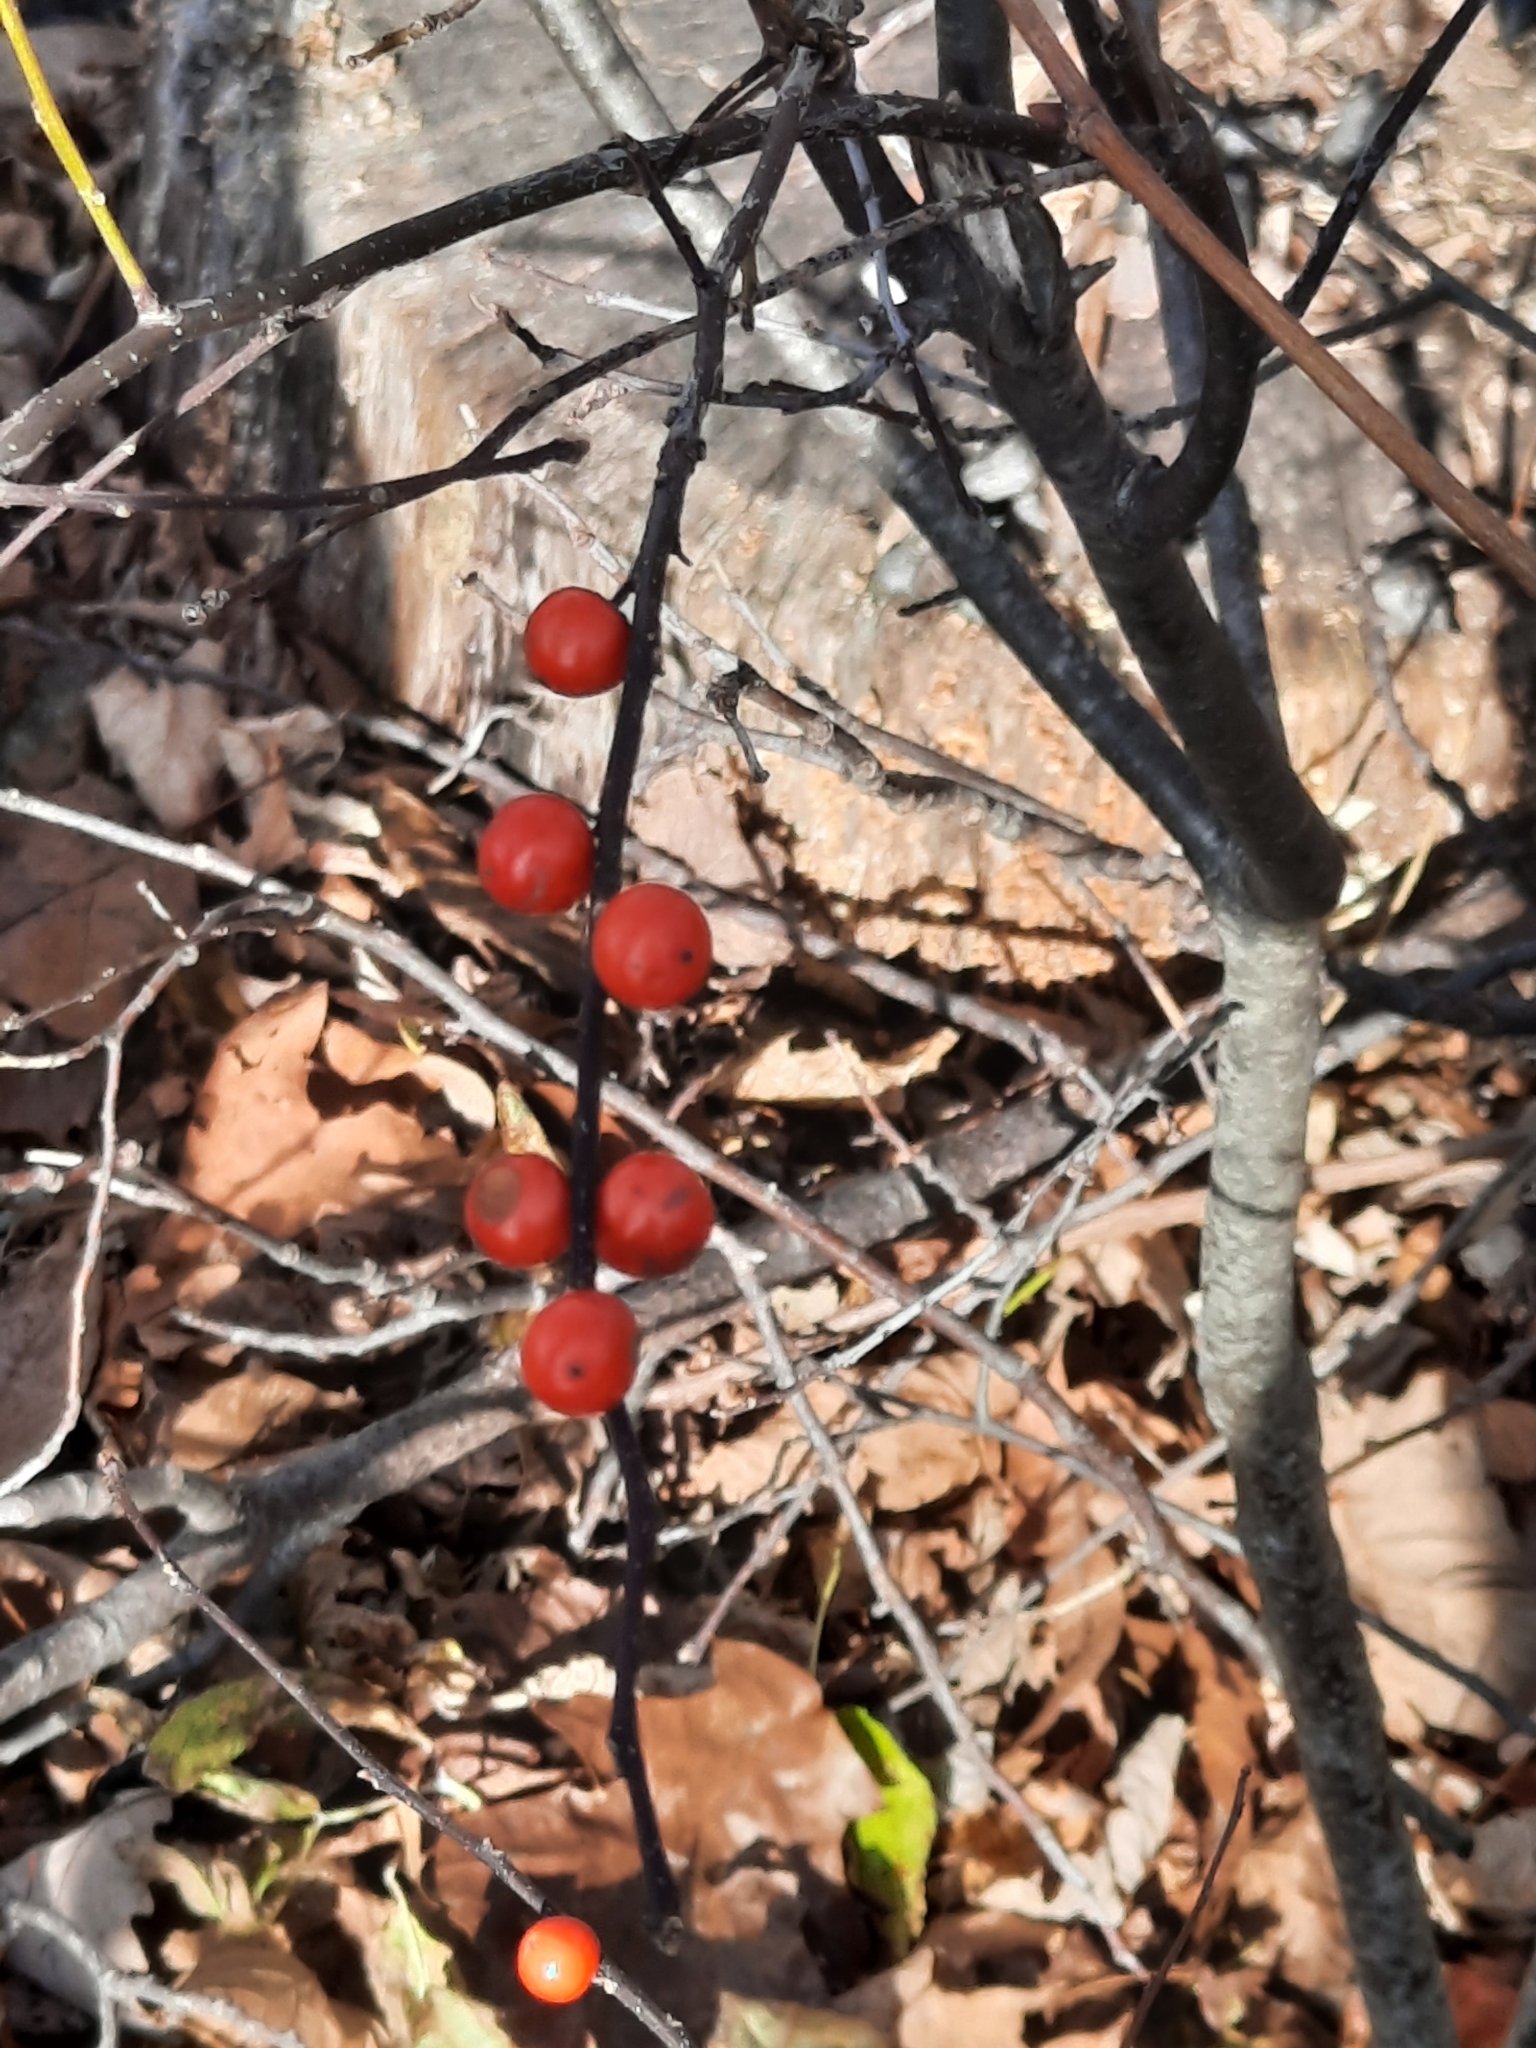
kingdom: Plantae
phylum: Tracheophyta
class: Magnoliopsida
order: Aquifoliales
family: Aquifoliaceae
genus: Ilex
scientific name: Ilex verticillata
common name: Virginia winterberry
